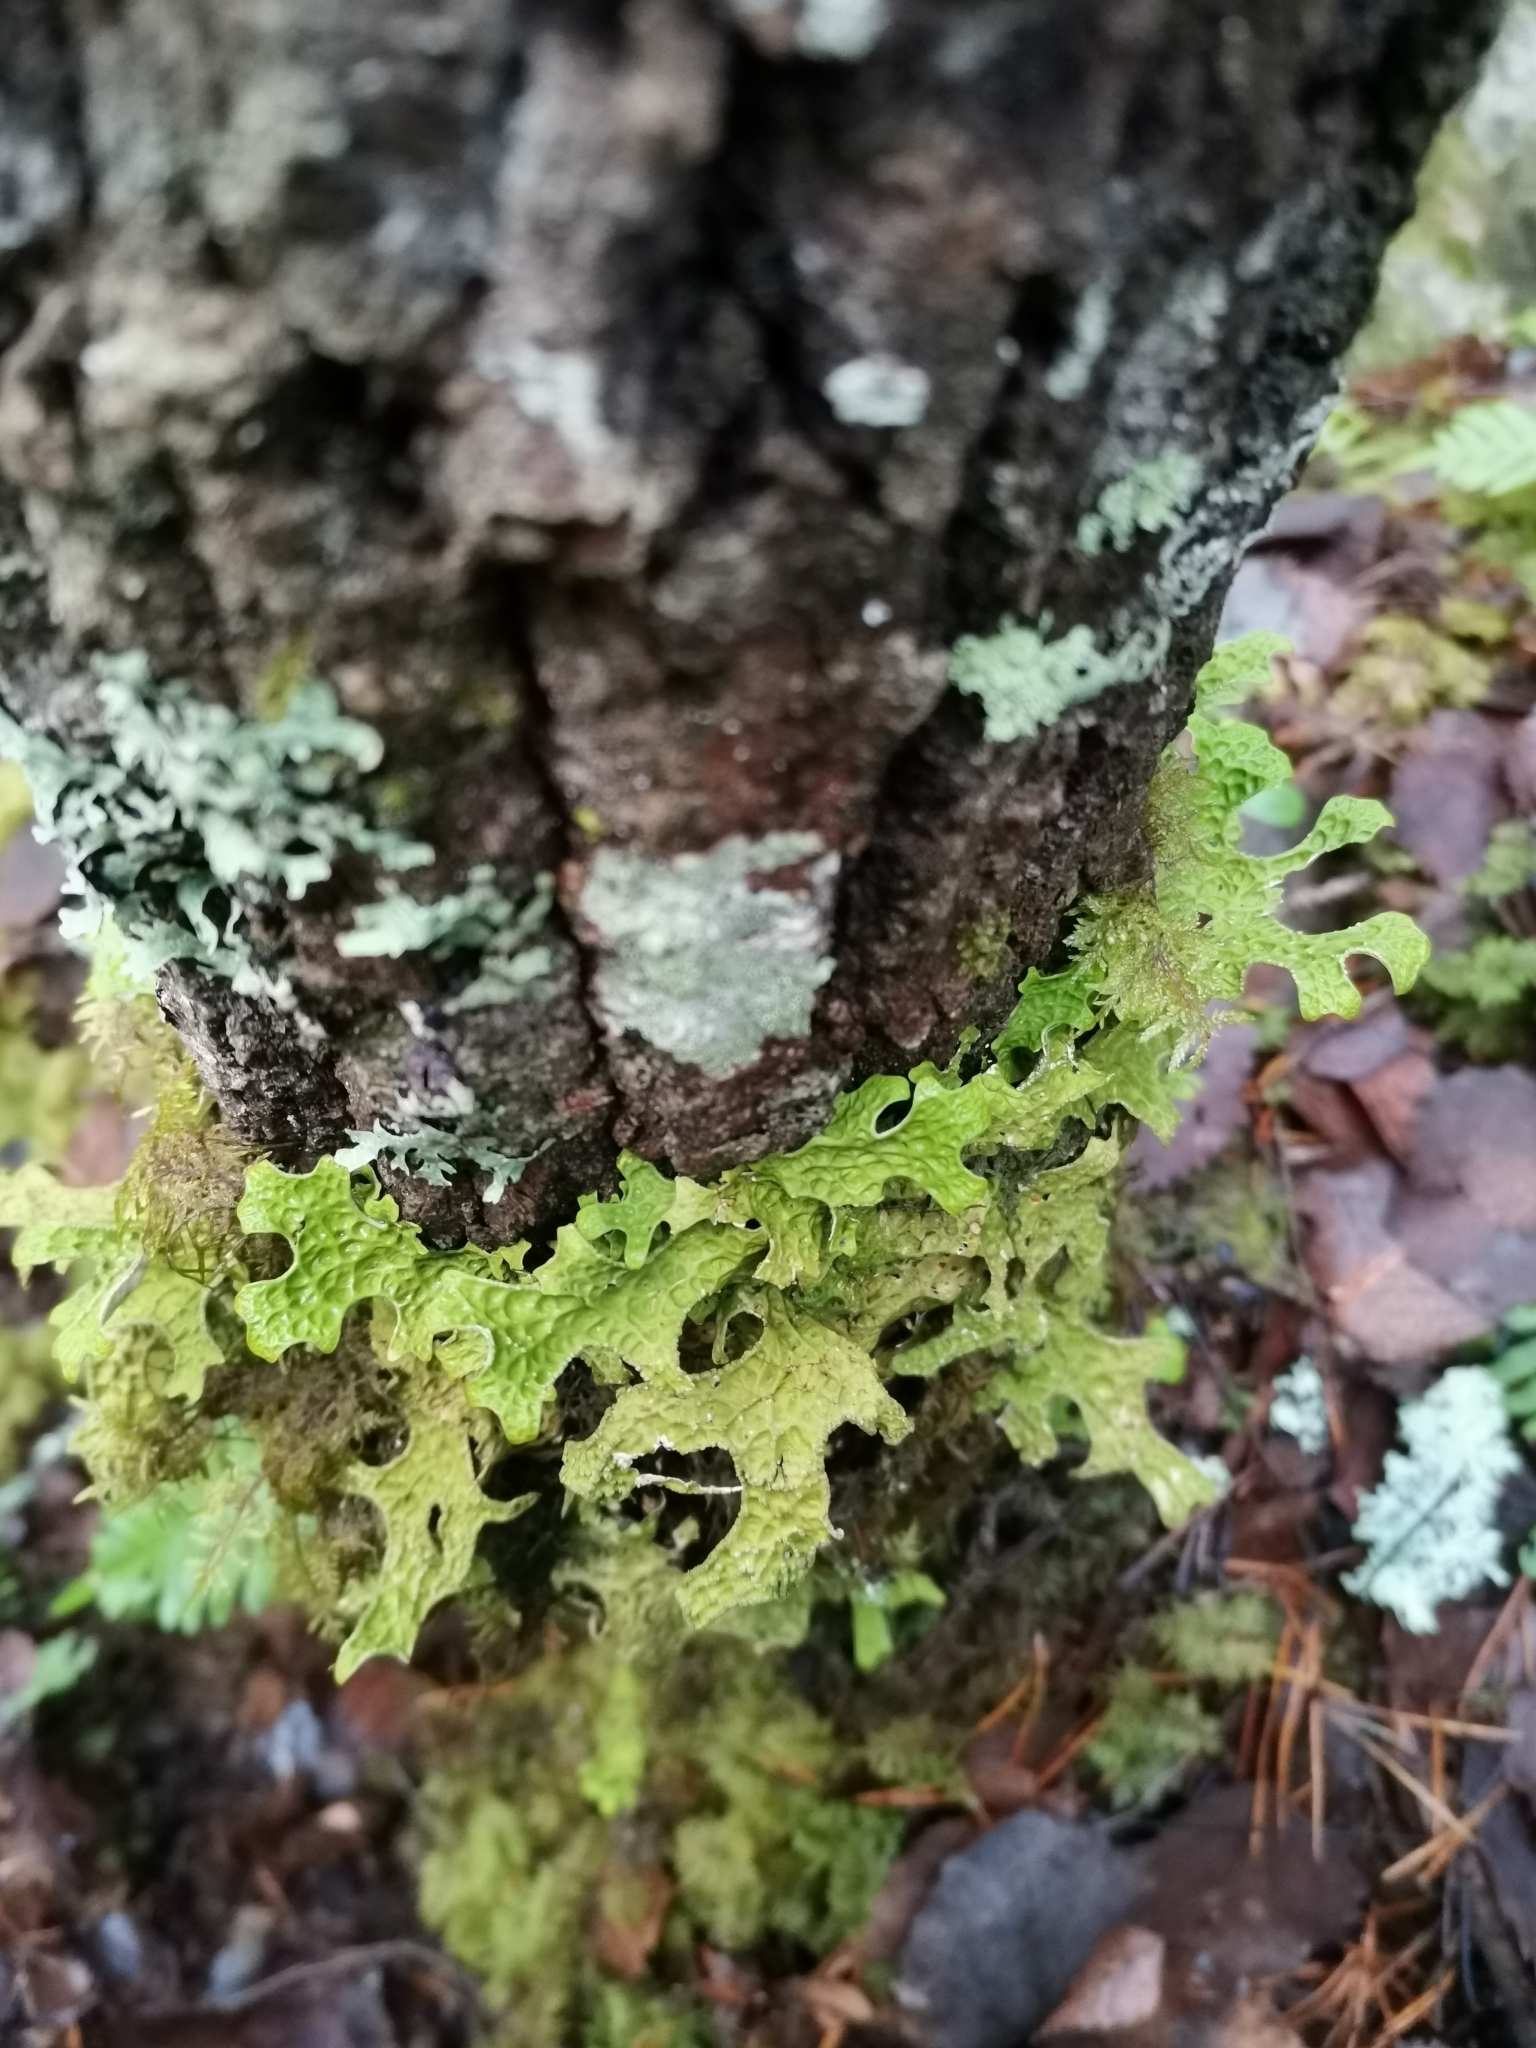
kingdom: Fungi
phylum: Ascomycota
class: Lecanoromycetes
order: Peltigerales
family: Lobariaceae
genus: Lobaria
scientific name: Lobaria pulmonaria
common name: Lungwort
